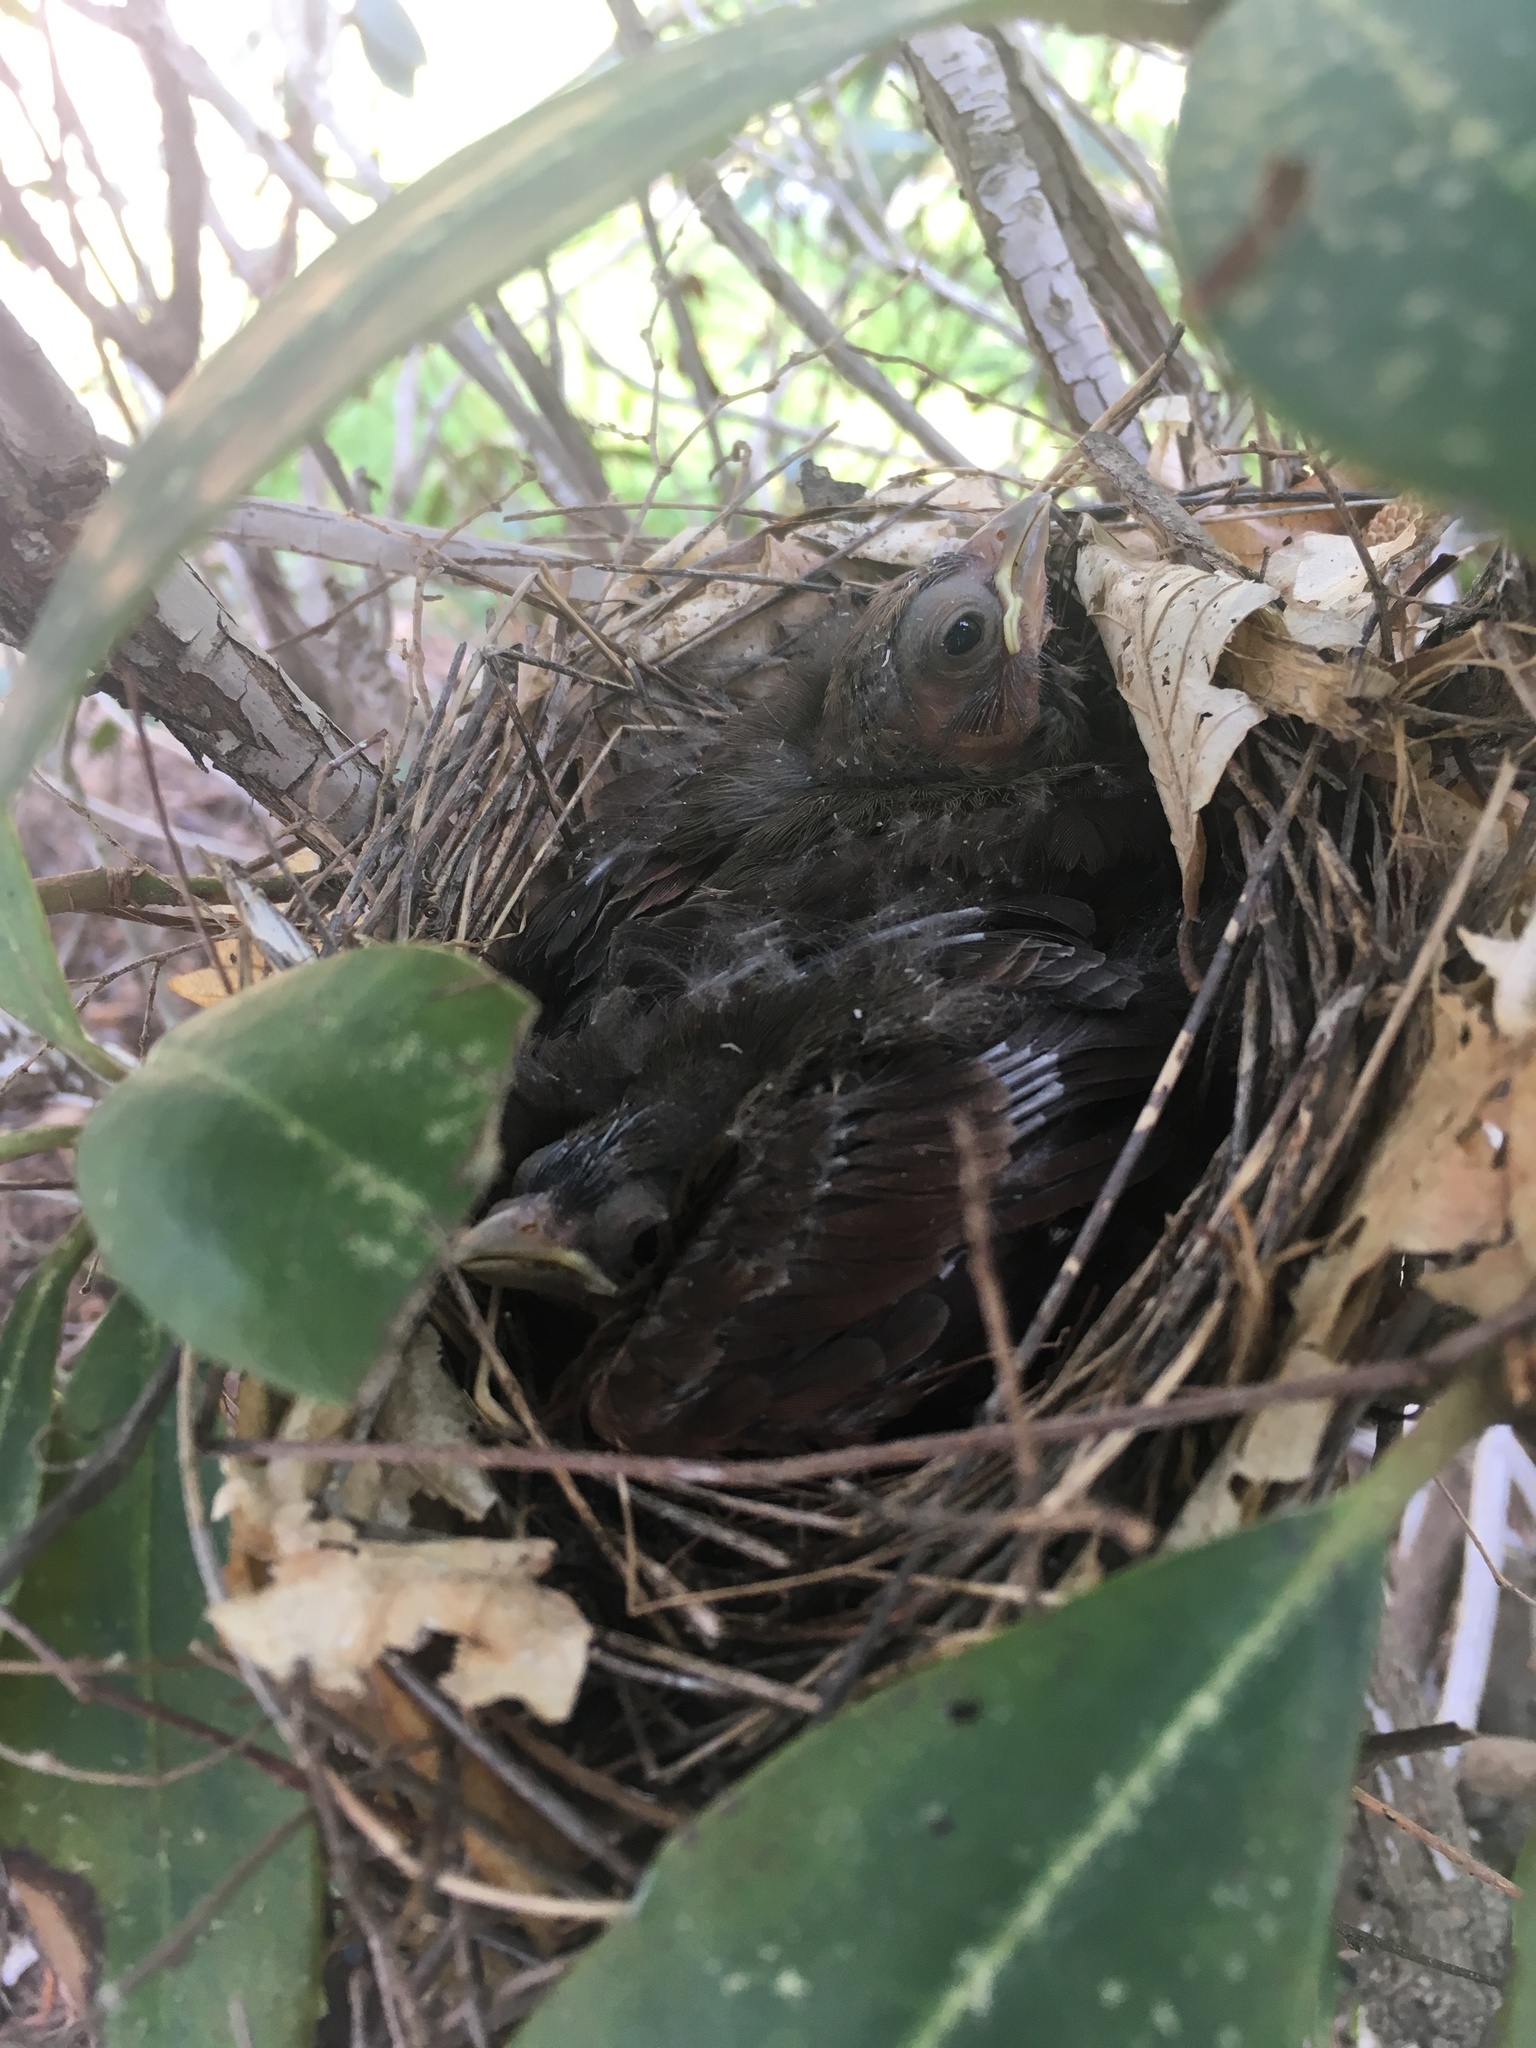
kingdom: Animalia
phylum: Chordata
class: Aves
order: Passeriformes
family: Cardinalidae
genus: Cardinalis
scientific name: Cardinalis cardinalis
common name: Northern cardinal
